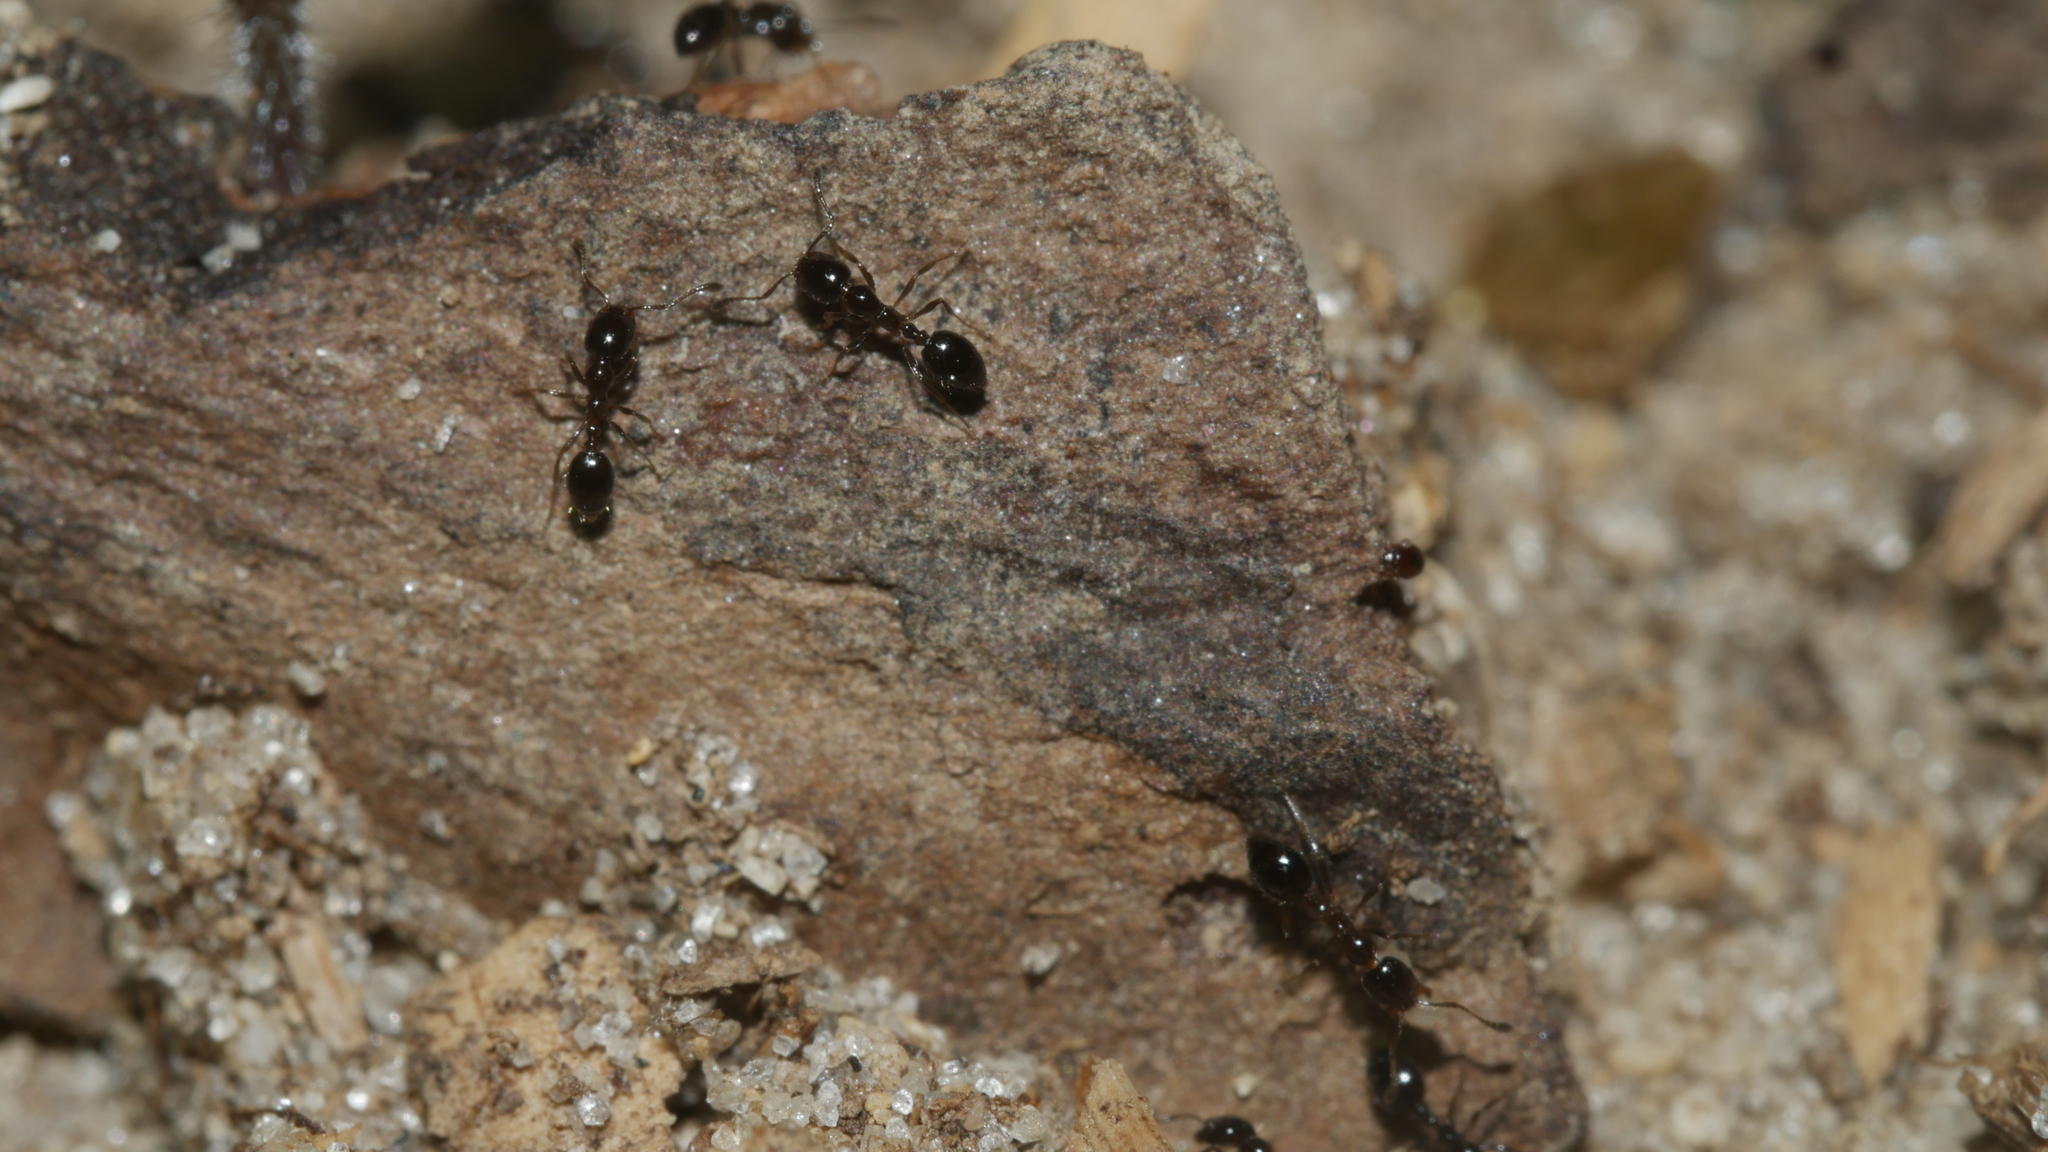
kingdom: Animalia
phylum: Arthropoda
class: Insecta
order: Hymenoptera
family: Formicidae
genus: Monomorium
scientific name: Monomorium minimum
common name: Little black ant
